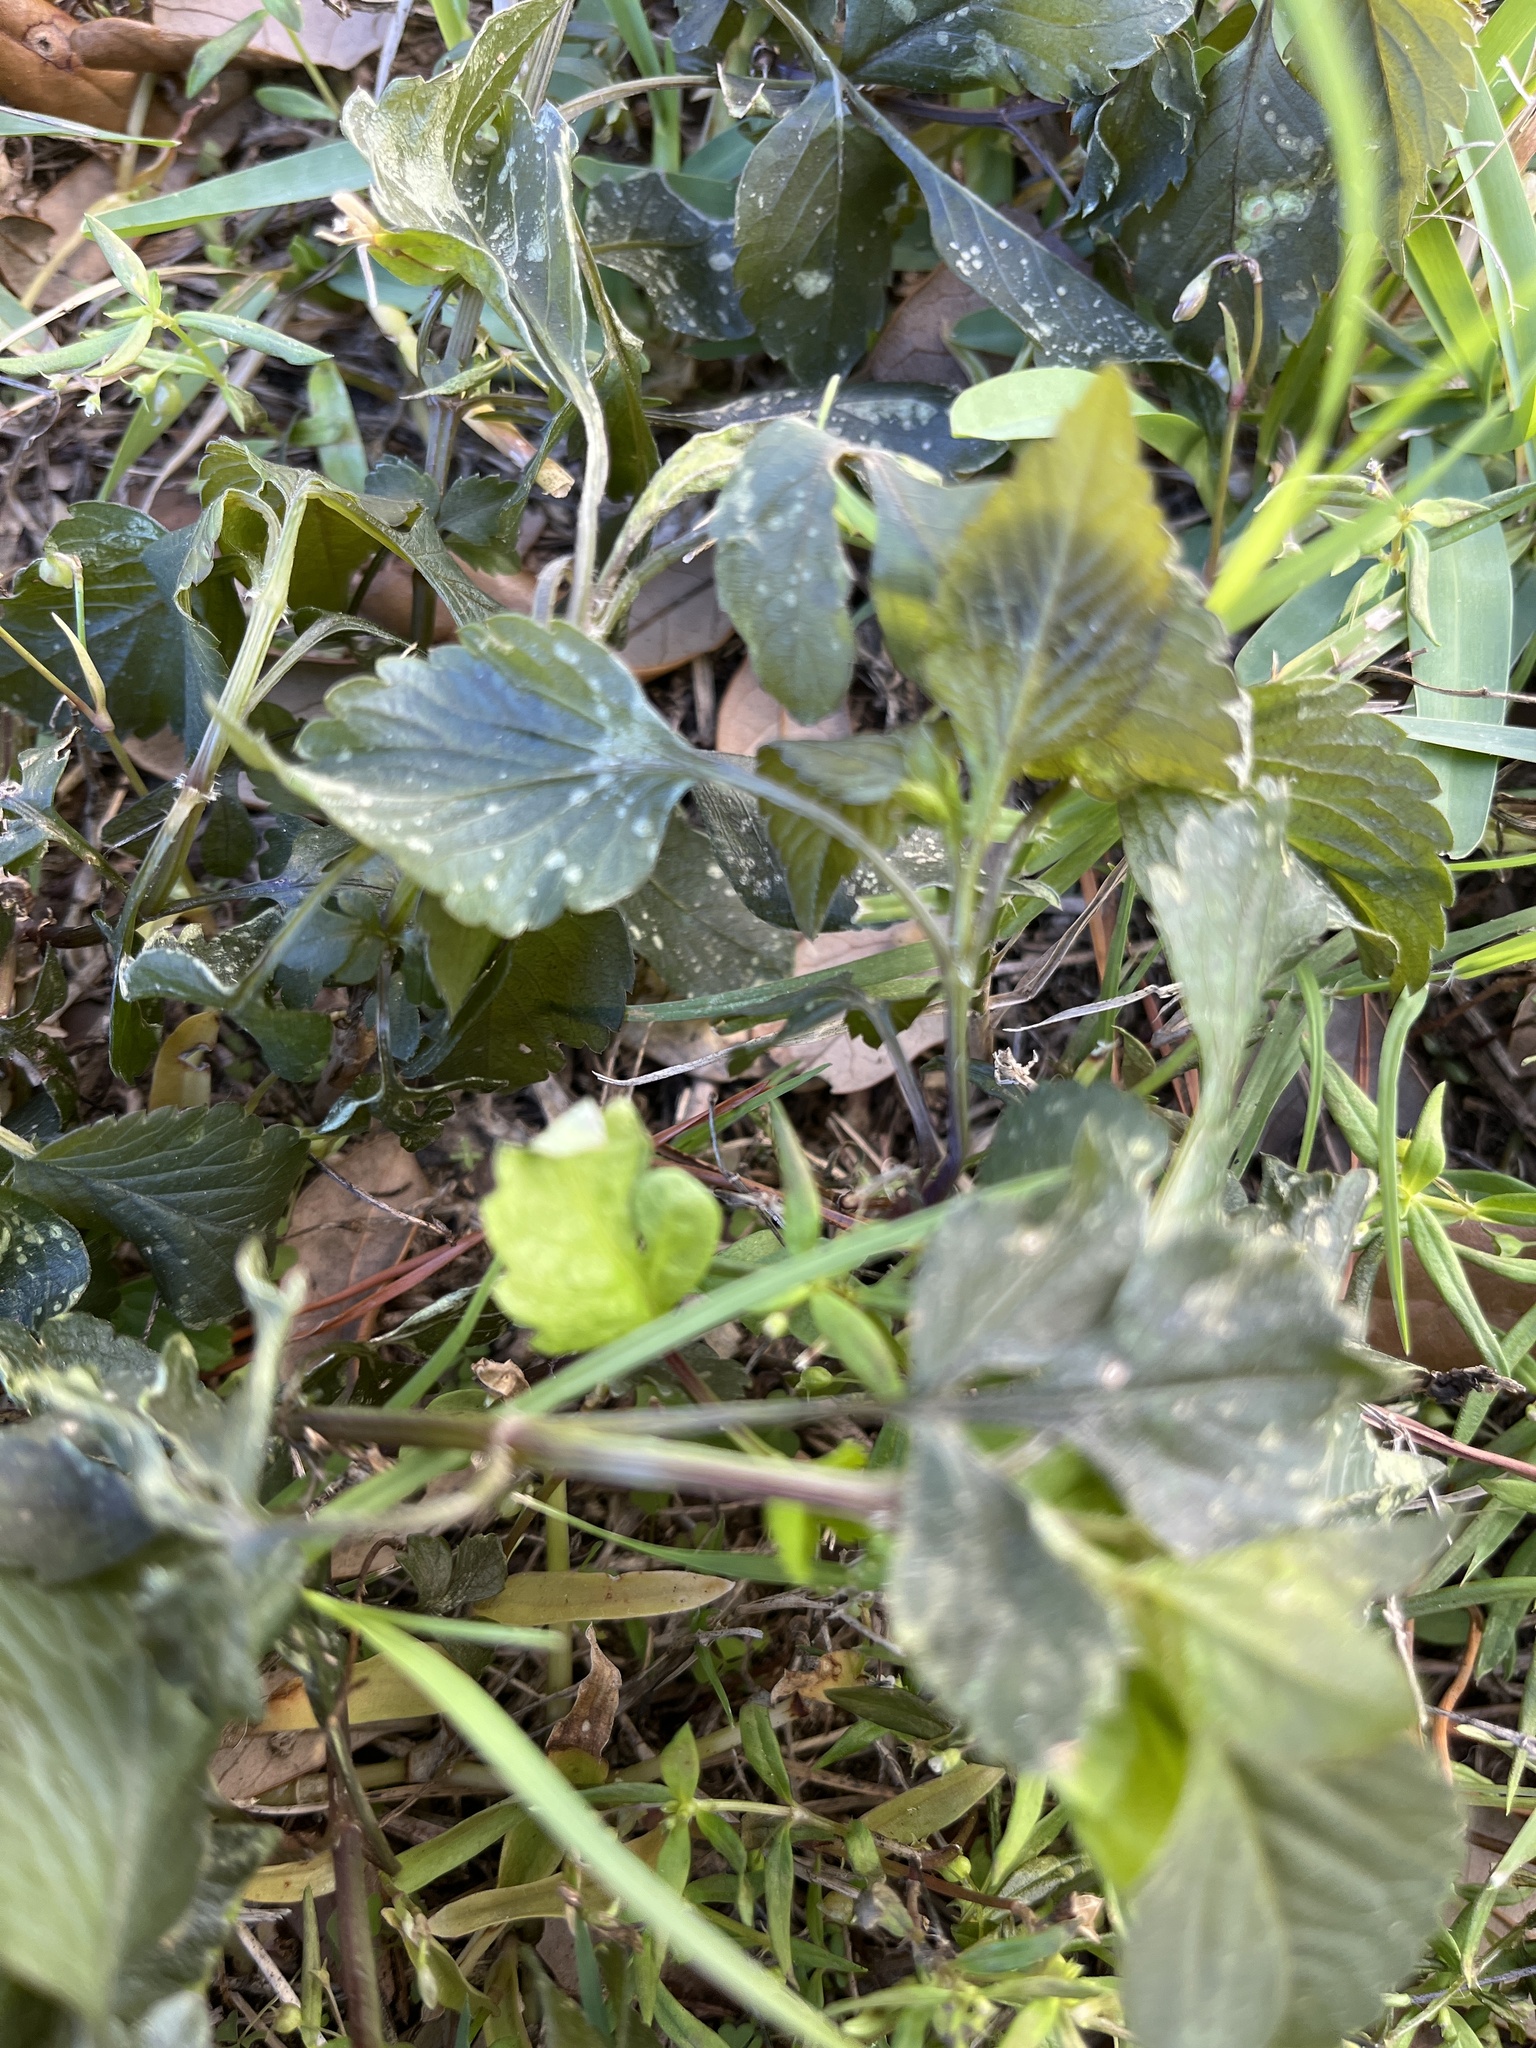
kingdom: Plantae
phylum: Tracheophyta
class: Magnoliopsida
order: Asterales
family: Asteraceae
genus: Bidens
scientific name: Bidens alba
